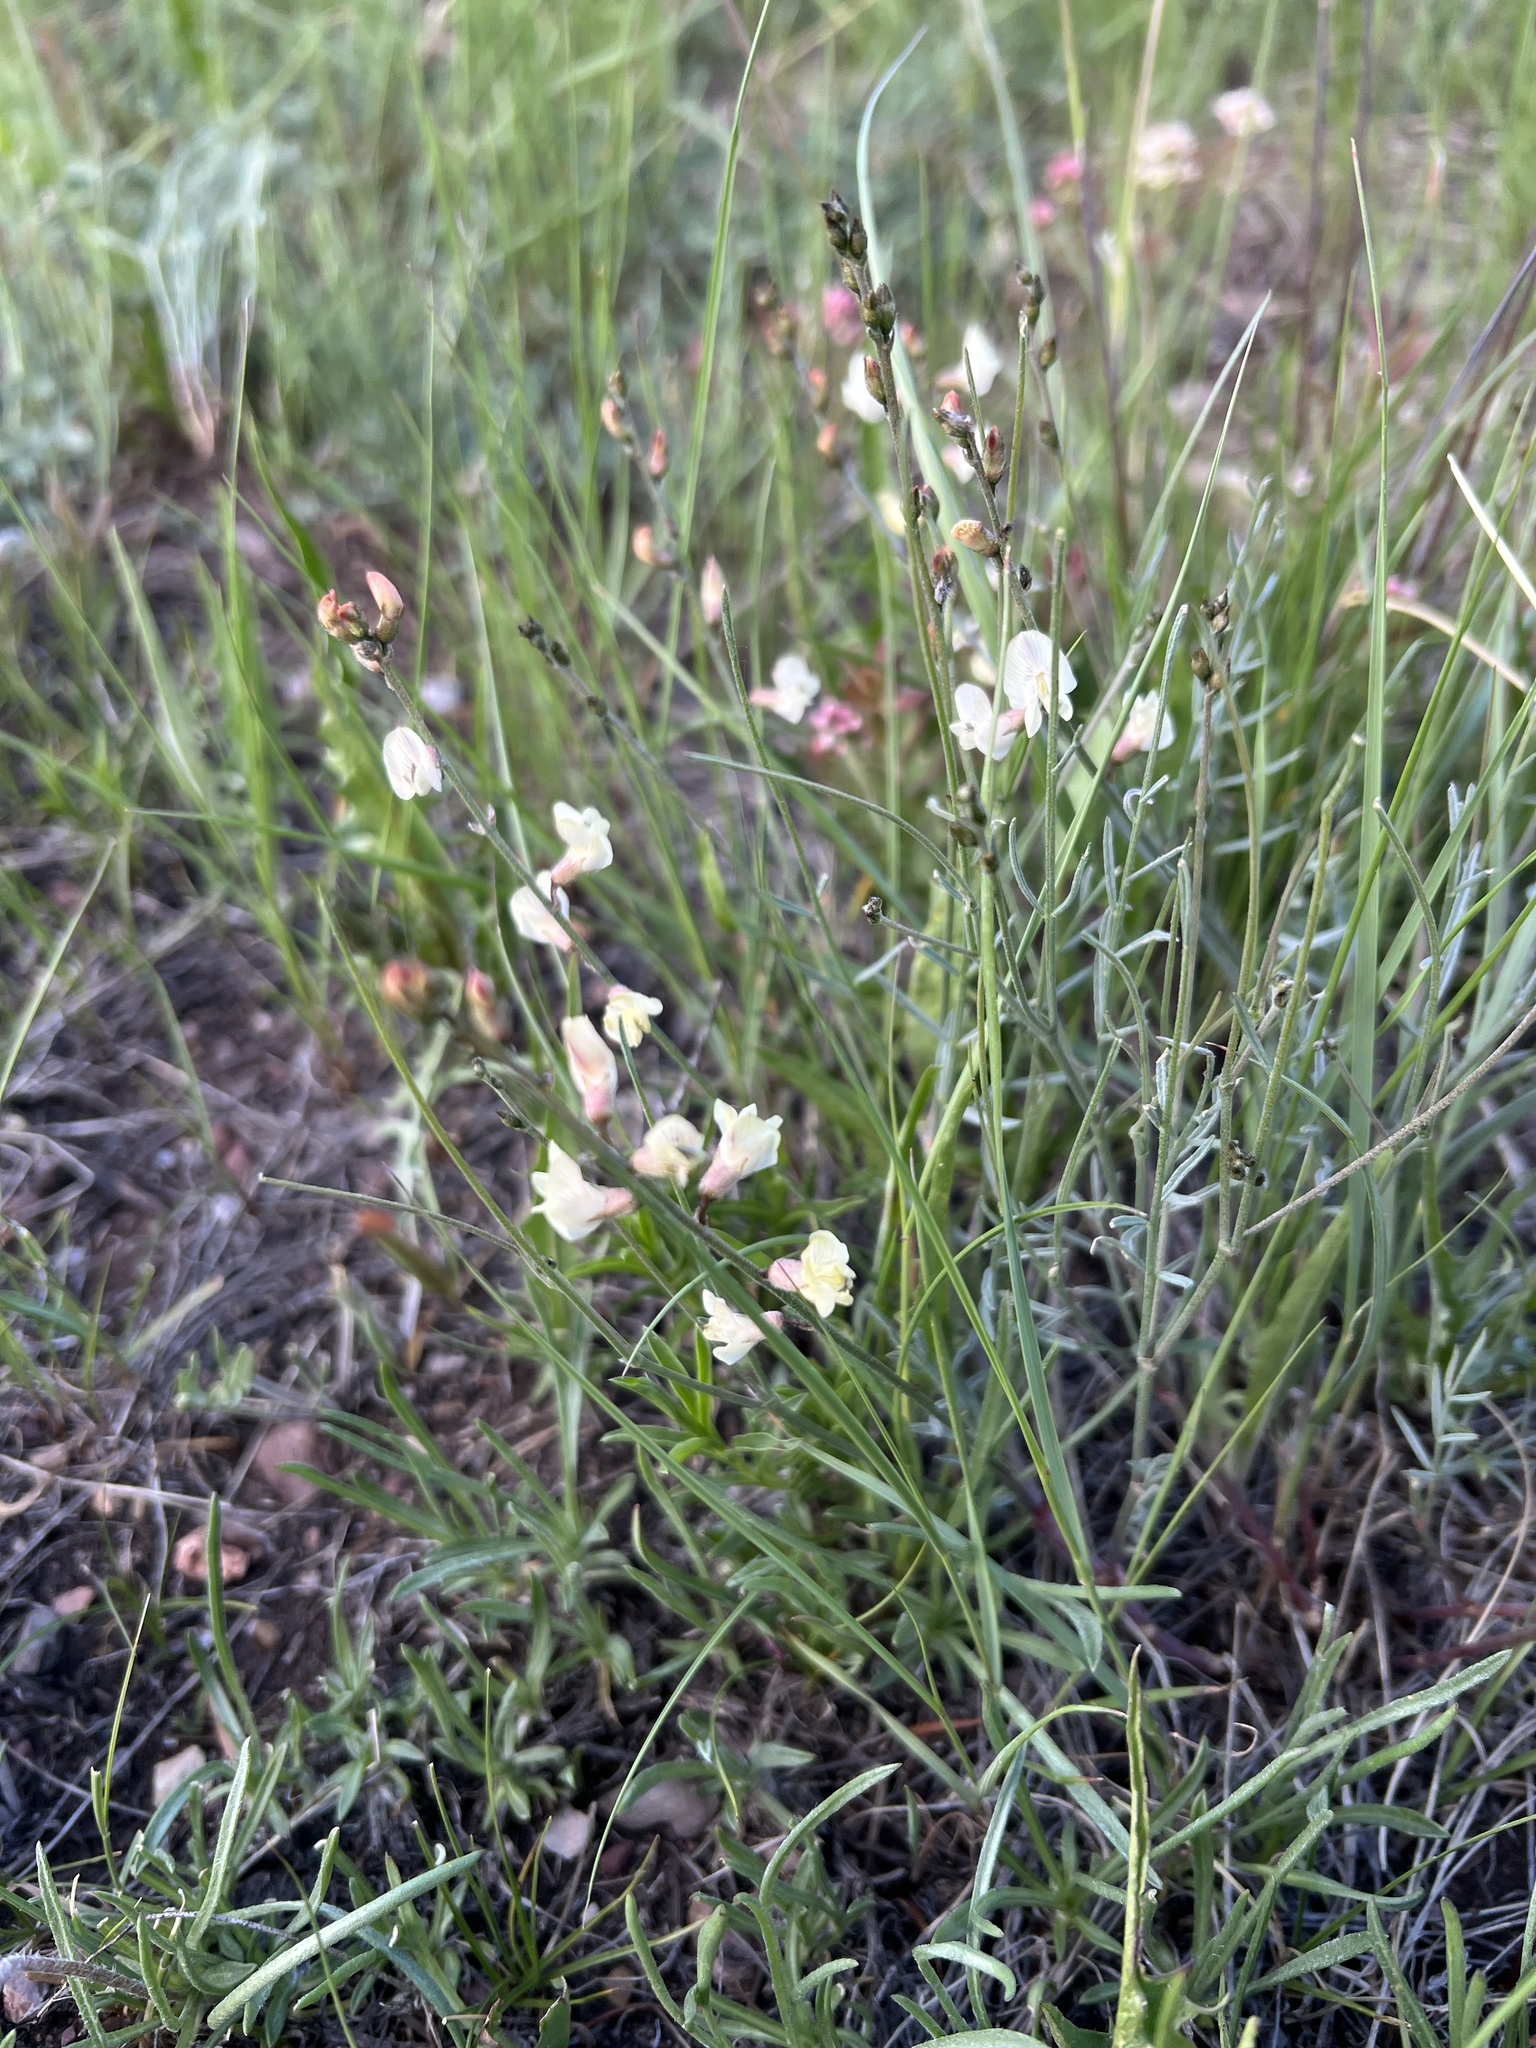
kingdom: Plantae
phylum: Tracheophyta
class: Magnoliopsida
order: Fabales
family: Fabaceae
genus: Astragalus
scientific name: Astragalus convallarius
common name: Lesser rushy milk-vetch
